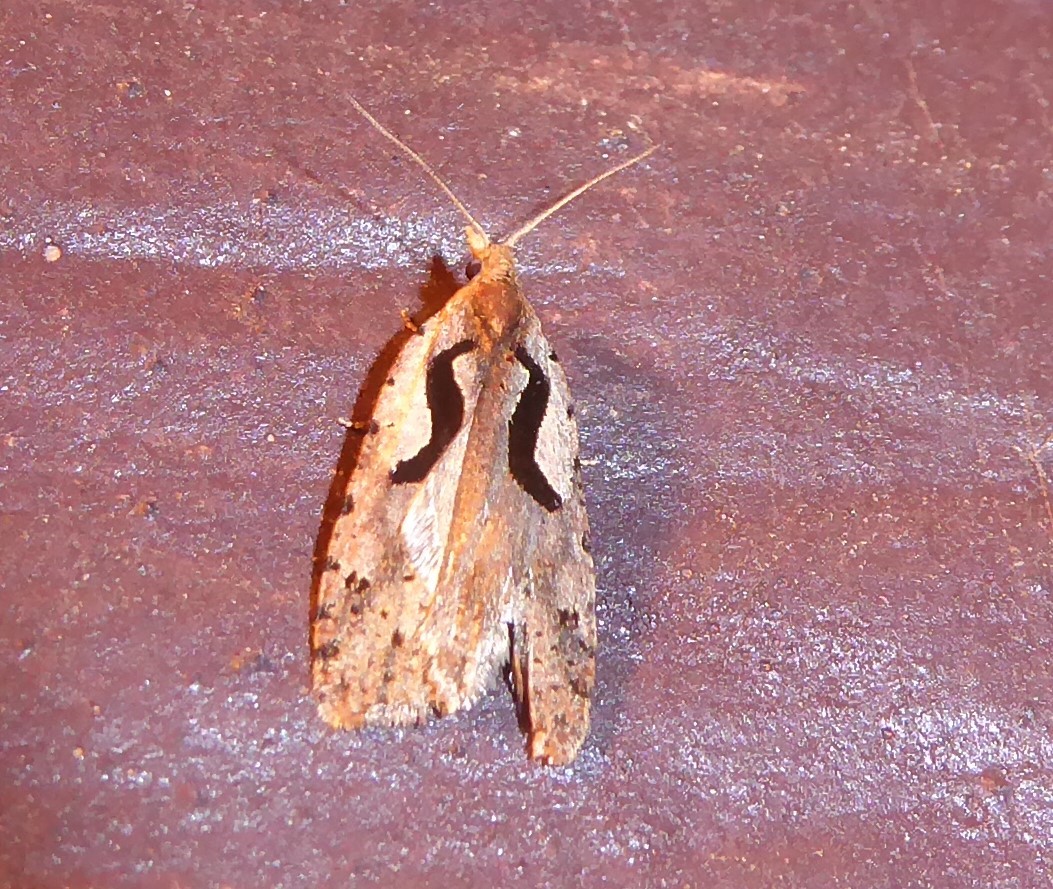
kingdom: Animalia
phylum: Arthropoda
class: Insecta
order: Lepidoptera
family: Tortricidae
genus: Cnephasia
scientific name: Cnephasia jactatana
